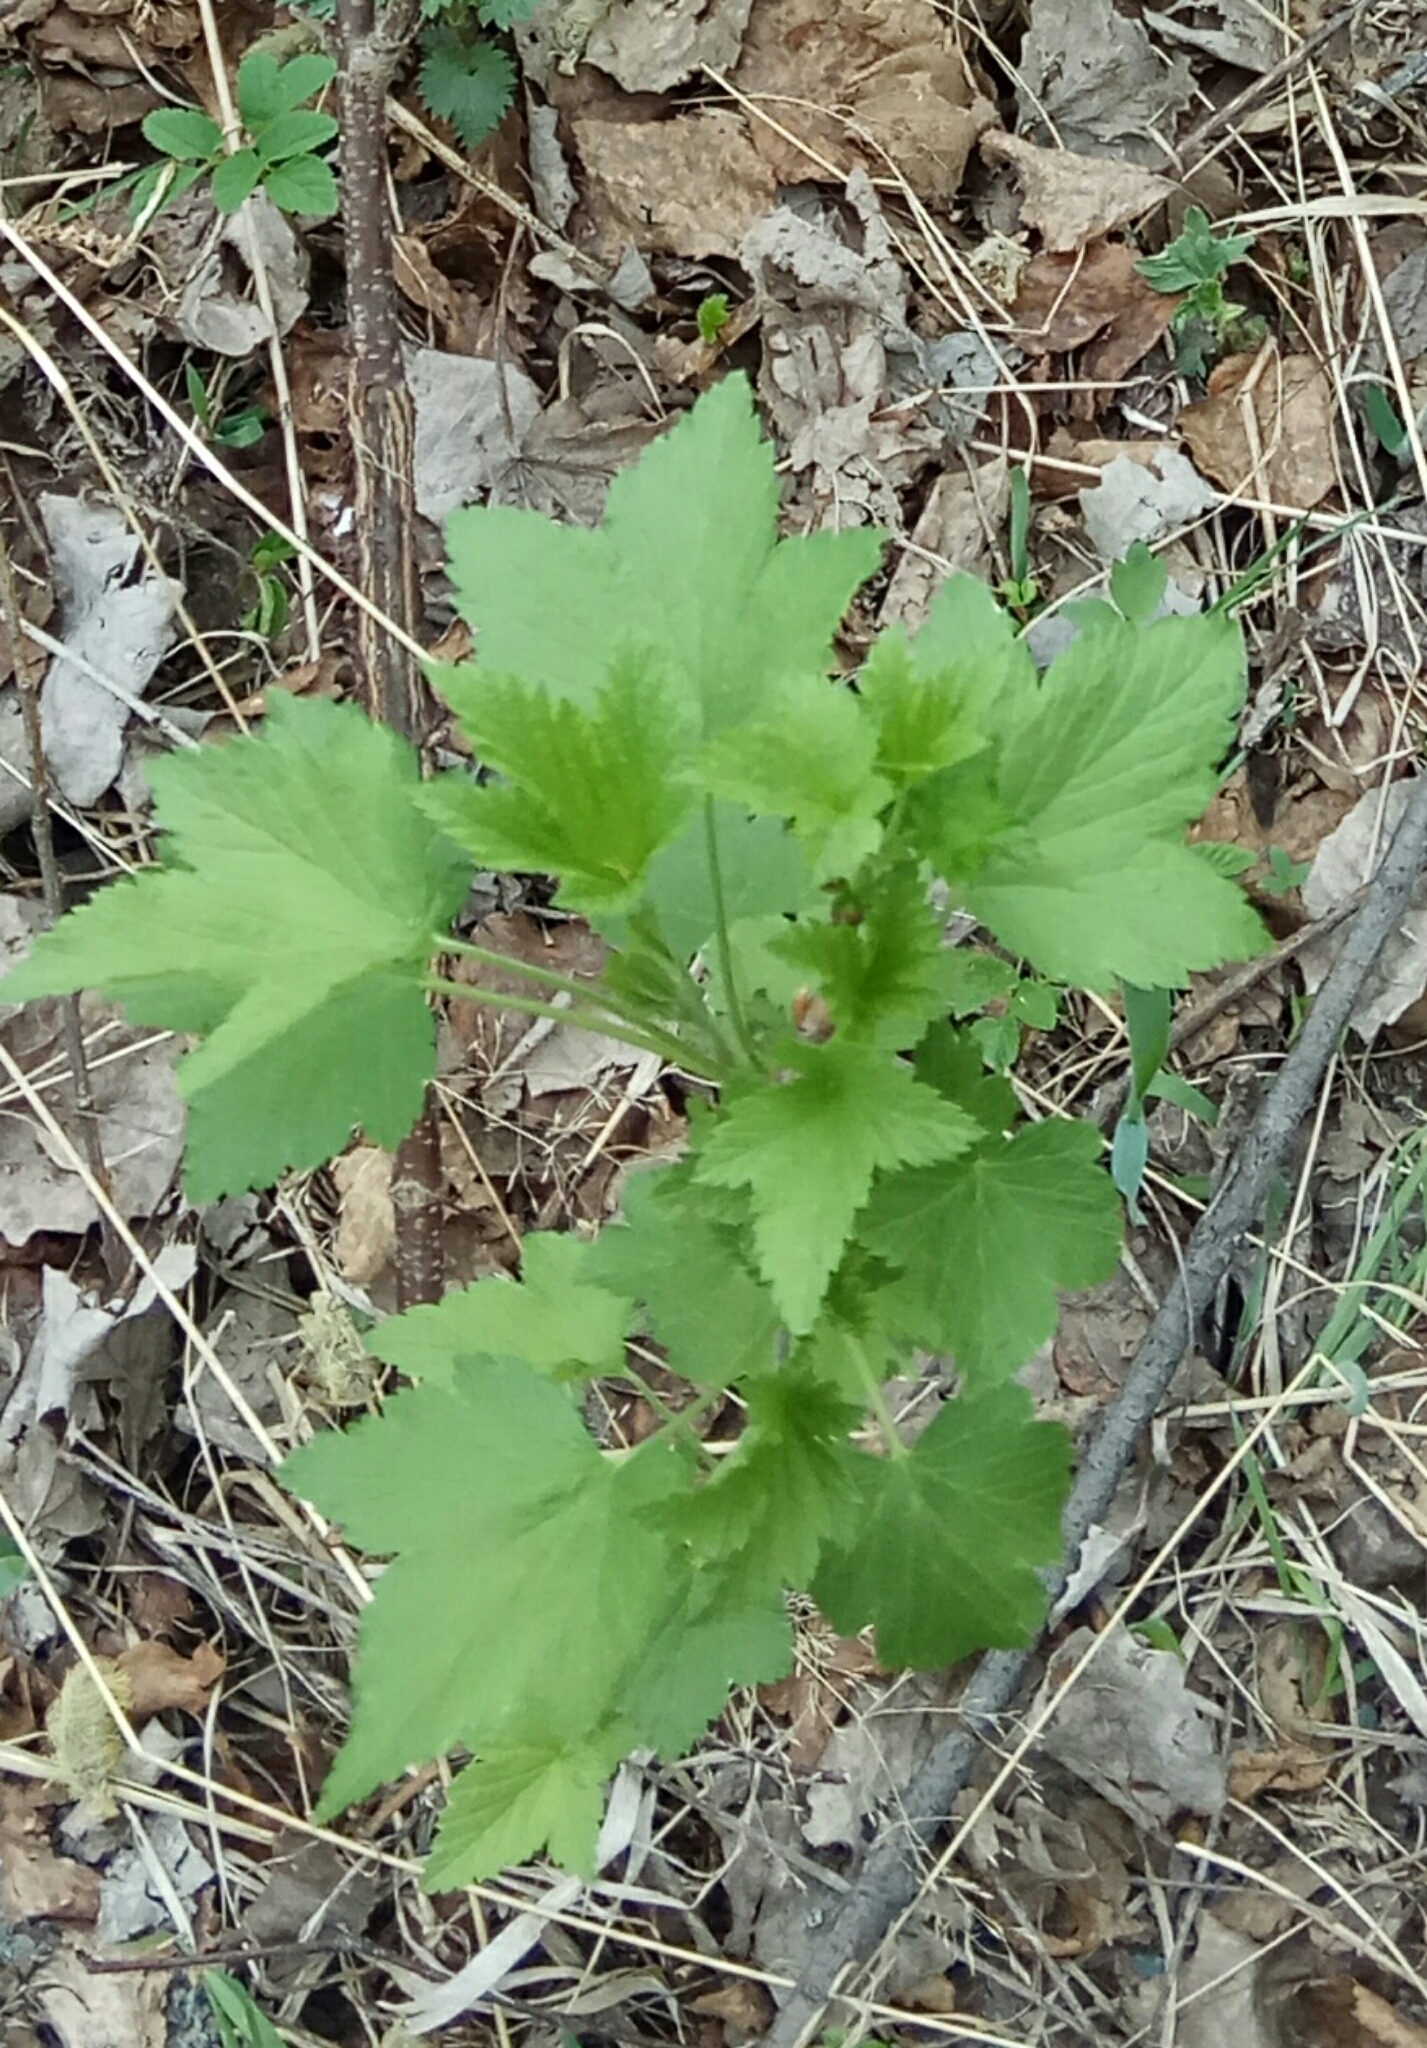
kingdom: Plantae
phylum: Tracheophyta
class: Magnoliopsida
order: Saxifragales
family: Grossulariaceae
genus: Ribes
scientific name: Ribes nigrum
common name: Black currant
